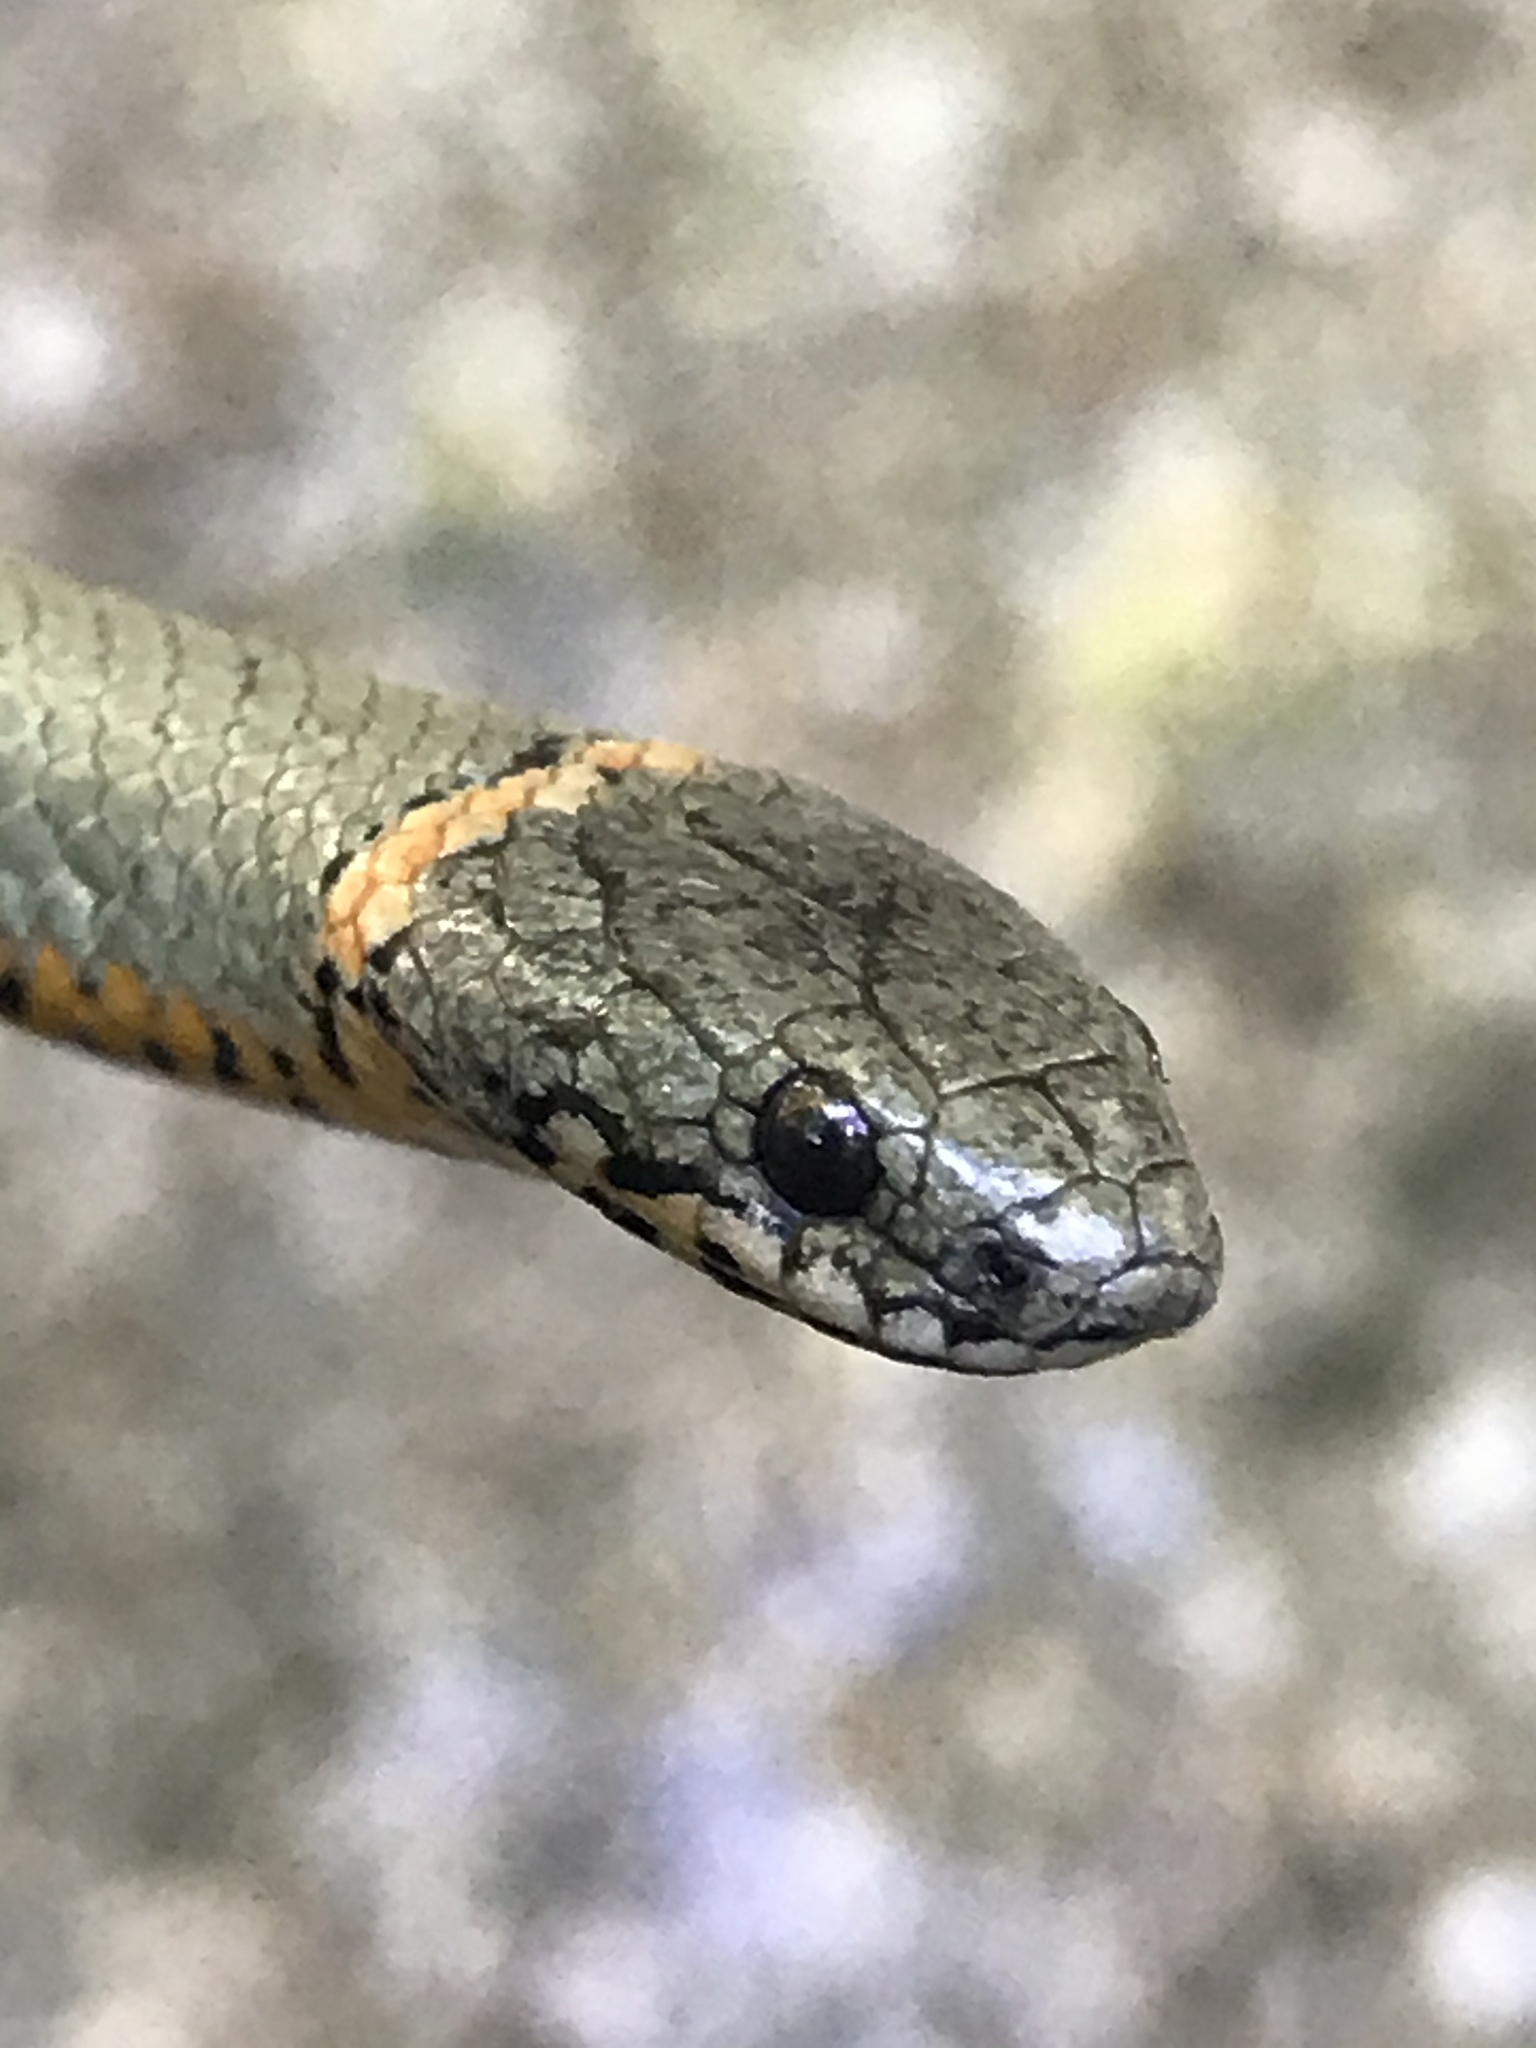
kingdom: Animalia
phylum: Chordata
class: Squamata
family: Colubridae
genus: Diadophis
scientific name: Diadophis punctatus
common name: Ringneck snake
